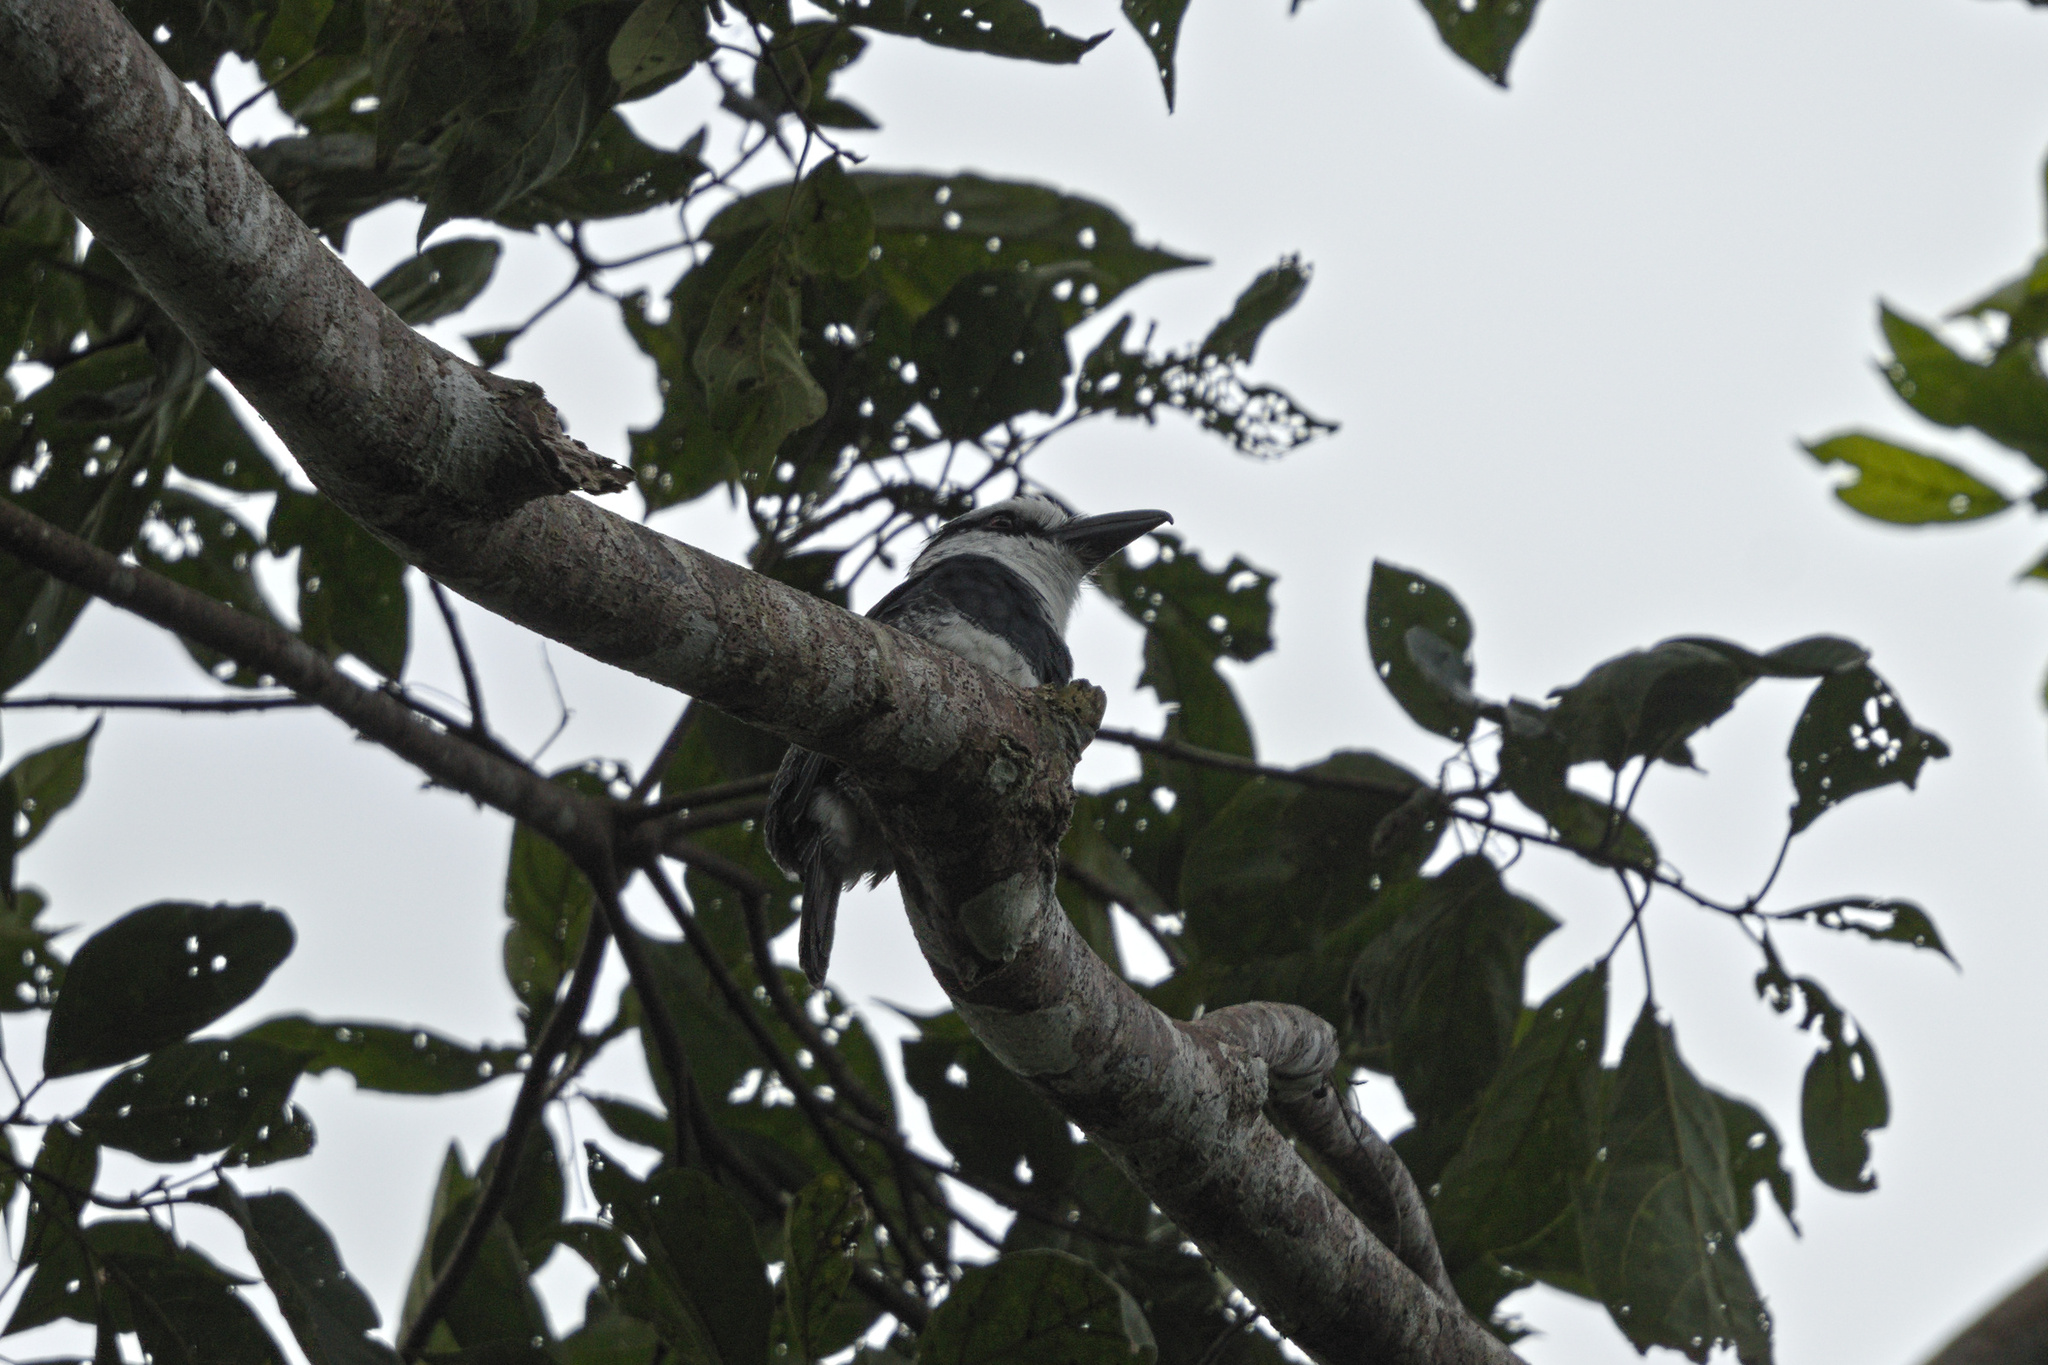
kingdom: Animalia
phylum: Chordata
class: Aves
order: Piciformes
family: Bucconidae
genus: Notharchus
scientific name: Notharchus hyperrhynchus
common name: White-necked puffbird
